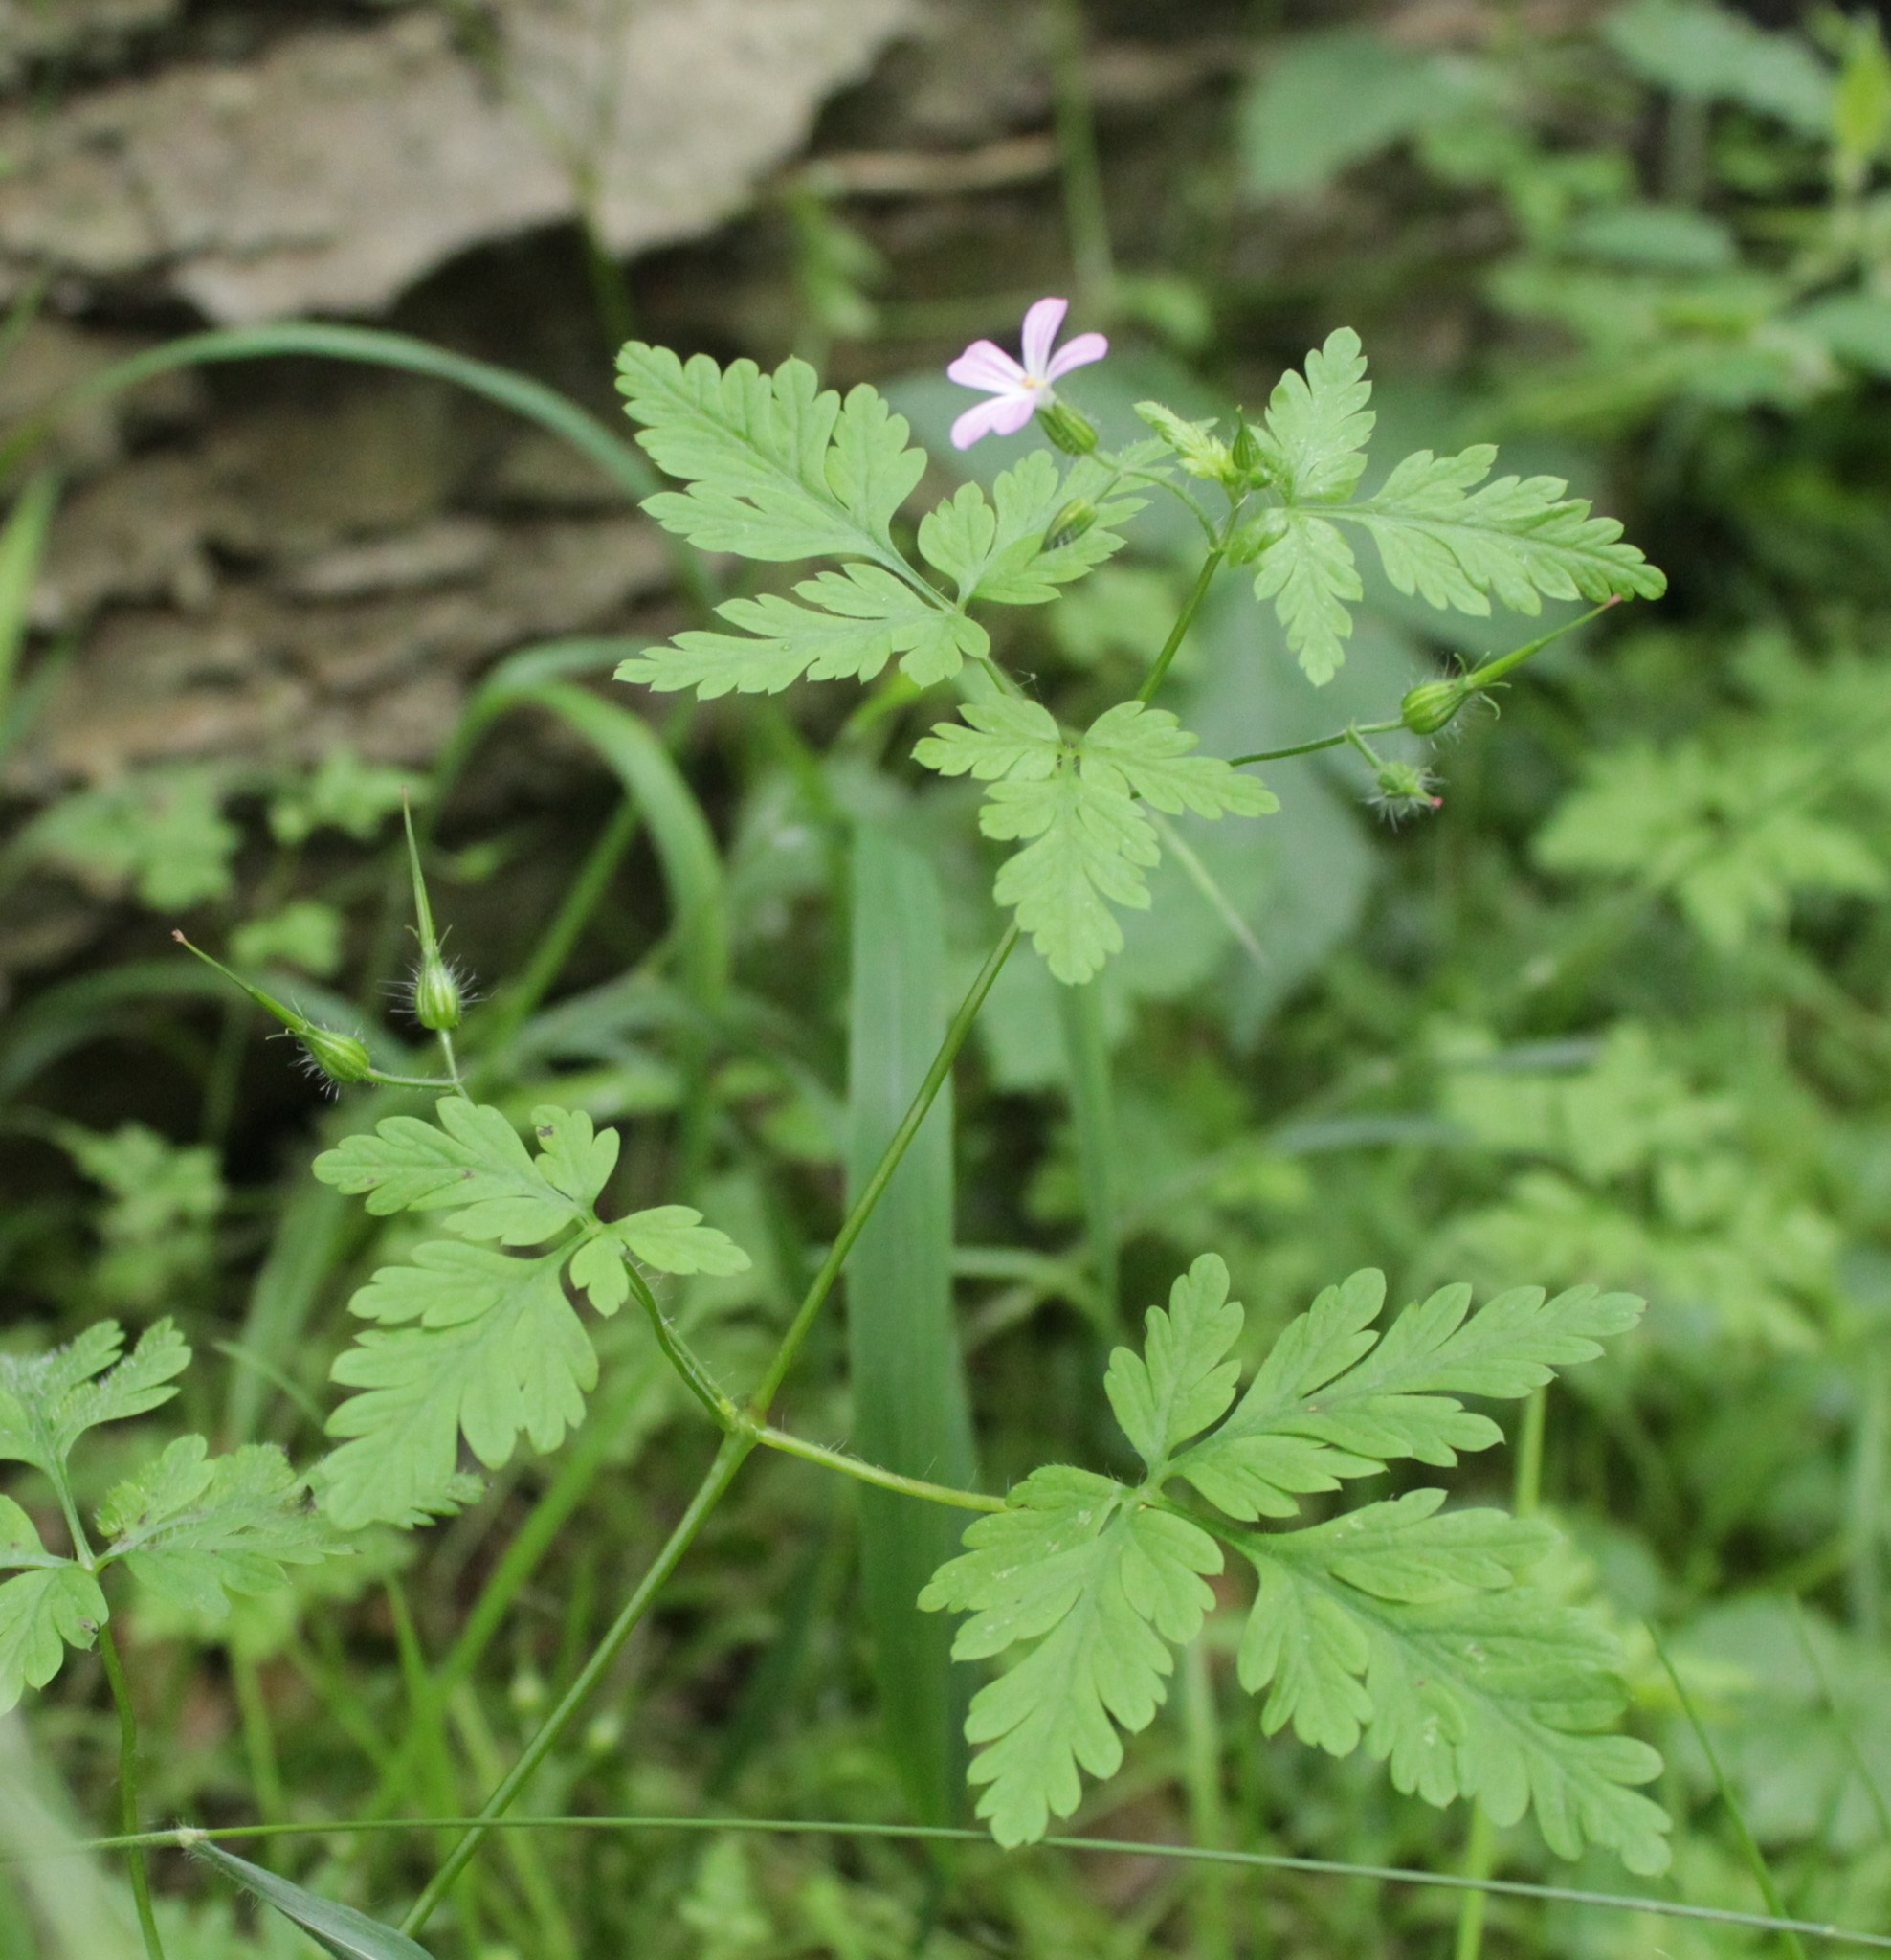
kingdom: Plantae
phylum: Tracheophyta
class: Magnoliopsida
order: Geraniales
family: Geraniaceae
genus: Geranium
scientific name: Geranium robertianum
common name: Herb-robert
